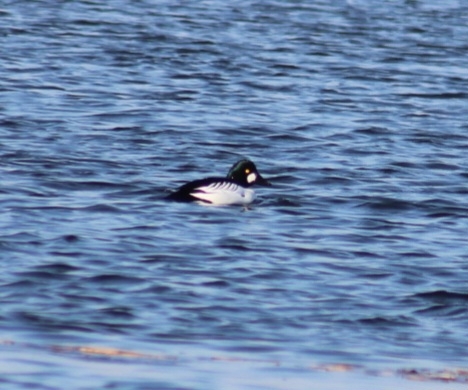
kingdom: Animalia
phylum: Chordata
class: Aves
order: Anseriformes
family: Anatidae
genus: Bucephala
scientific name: Bucephala clangula
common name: Common goldeneye
